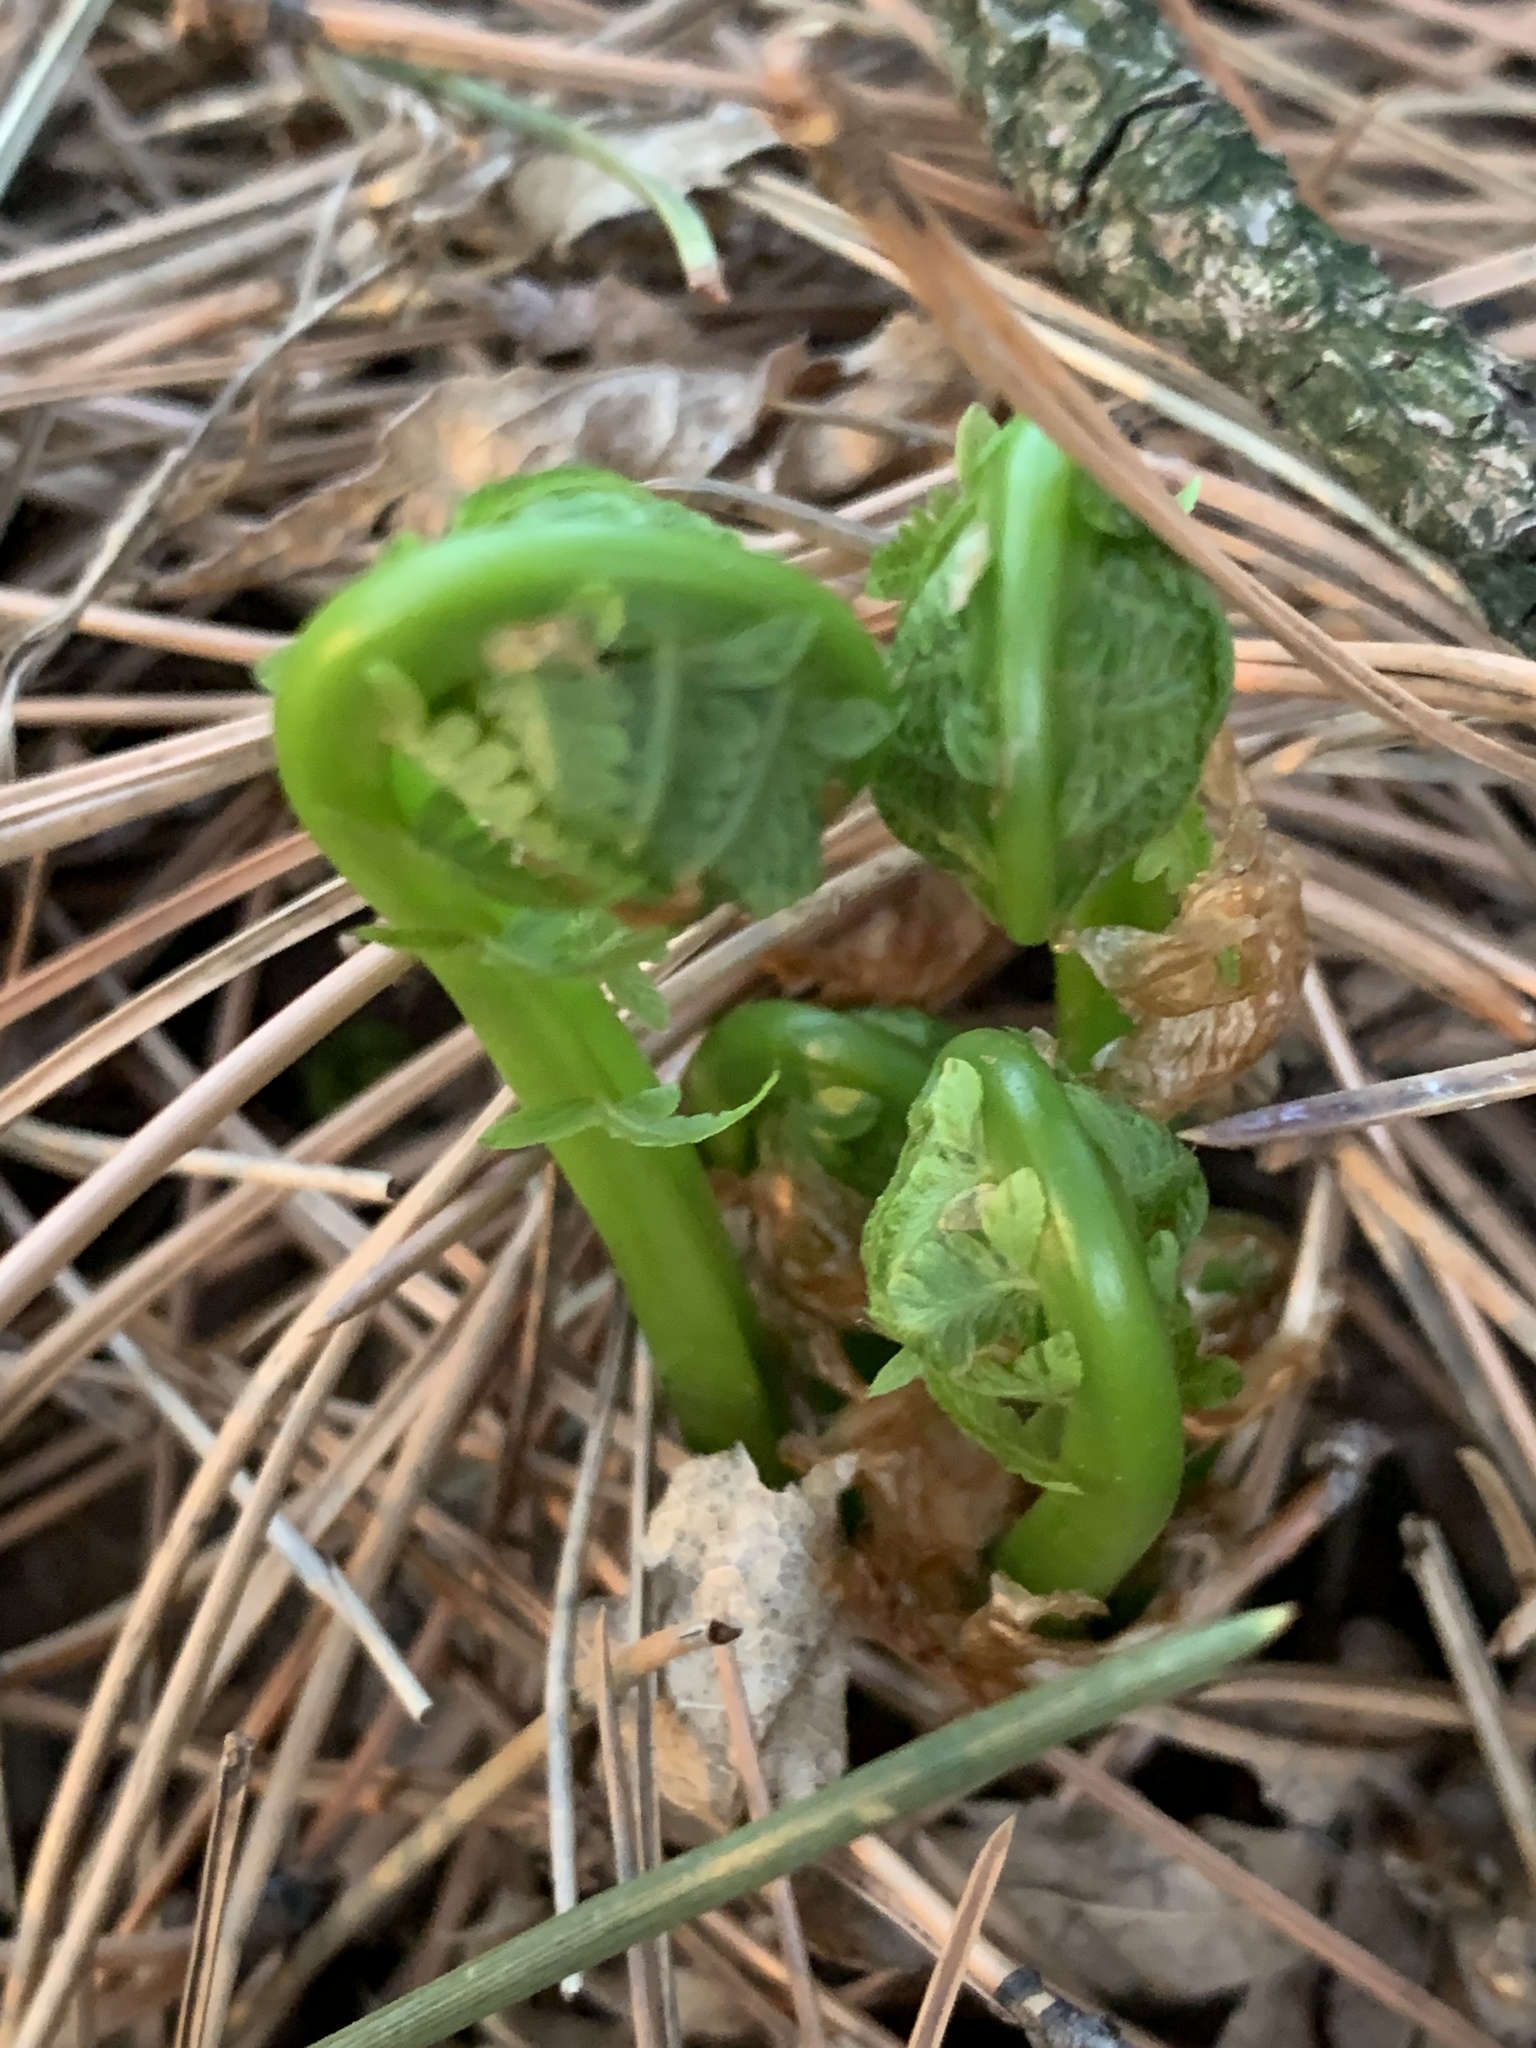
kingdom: Plantae
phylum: Tracheophyta
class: Polypodiopsida
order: Polypodiales
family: Onocleaceae
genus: Matteuccia
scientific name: Matteuccia struthiopteris
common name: Ostrich fern
